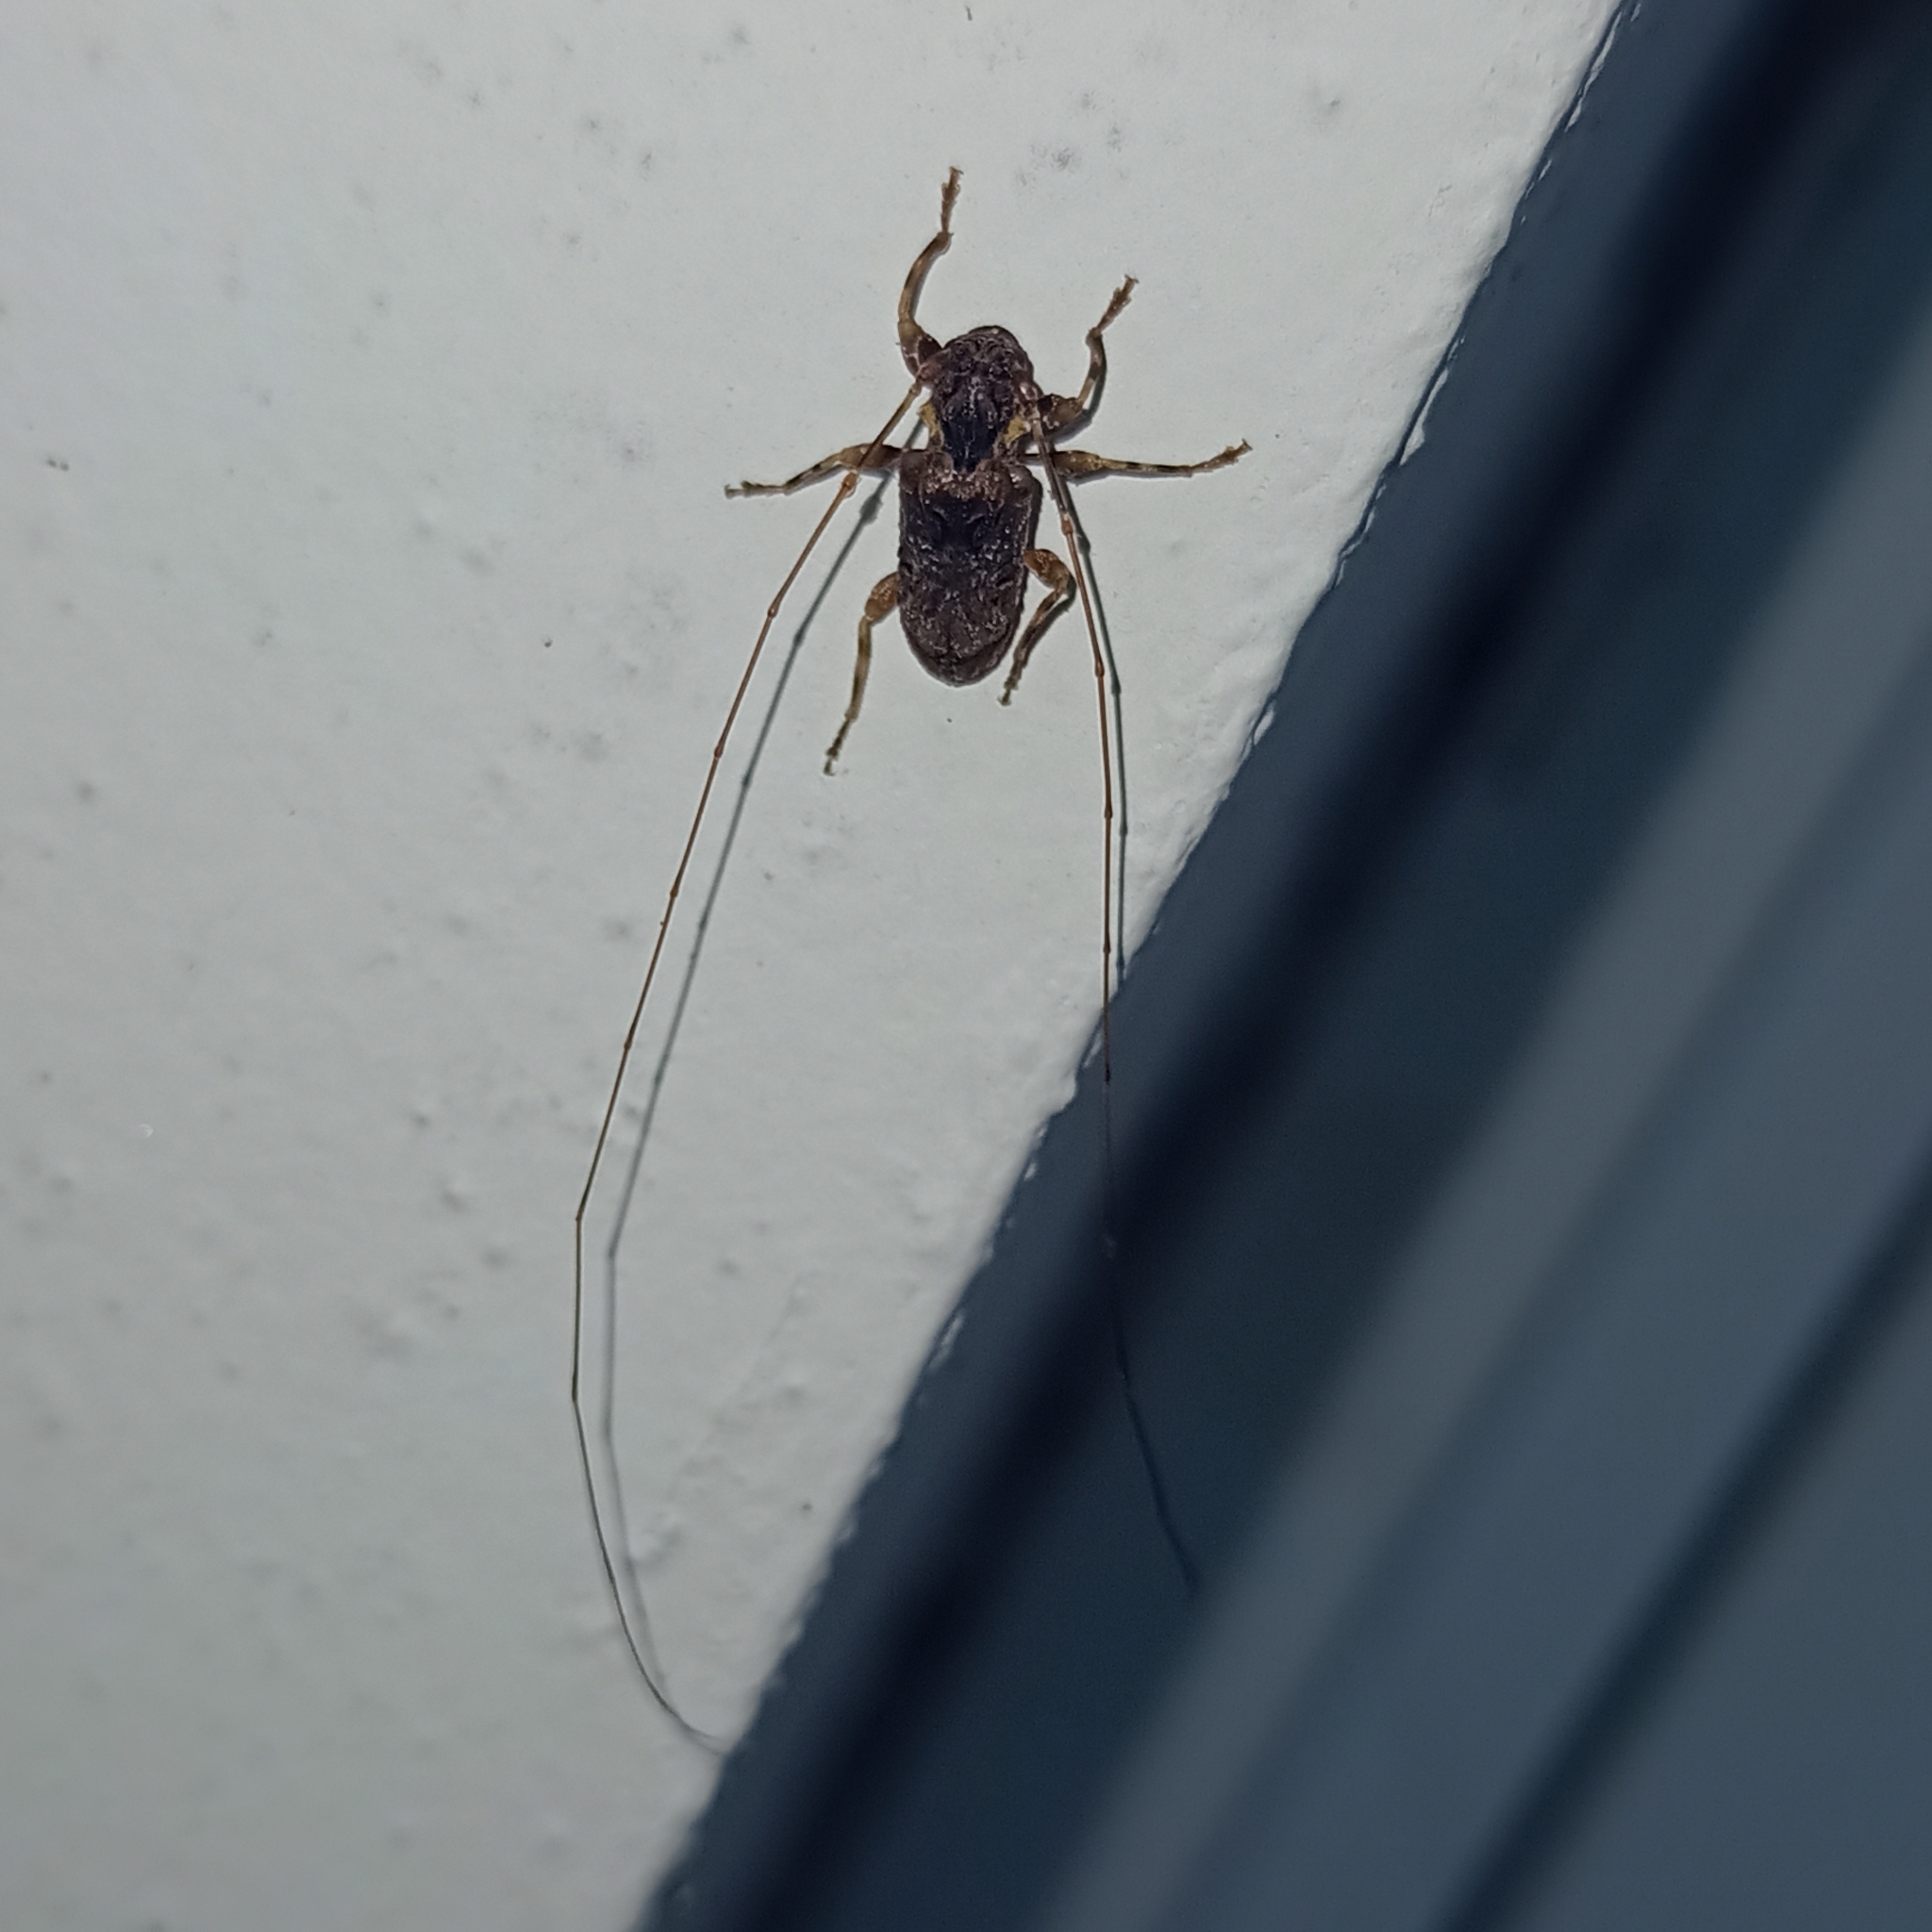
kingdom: Animalia
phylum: Arthropoda
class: Insecta
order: Coleoptera
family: Cerambycidae
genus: Macronemus
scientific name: Macronemus mimus
